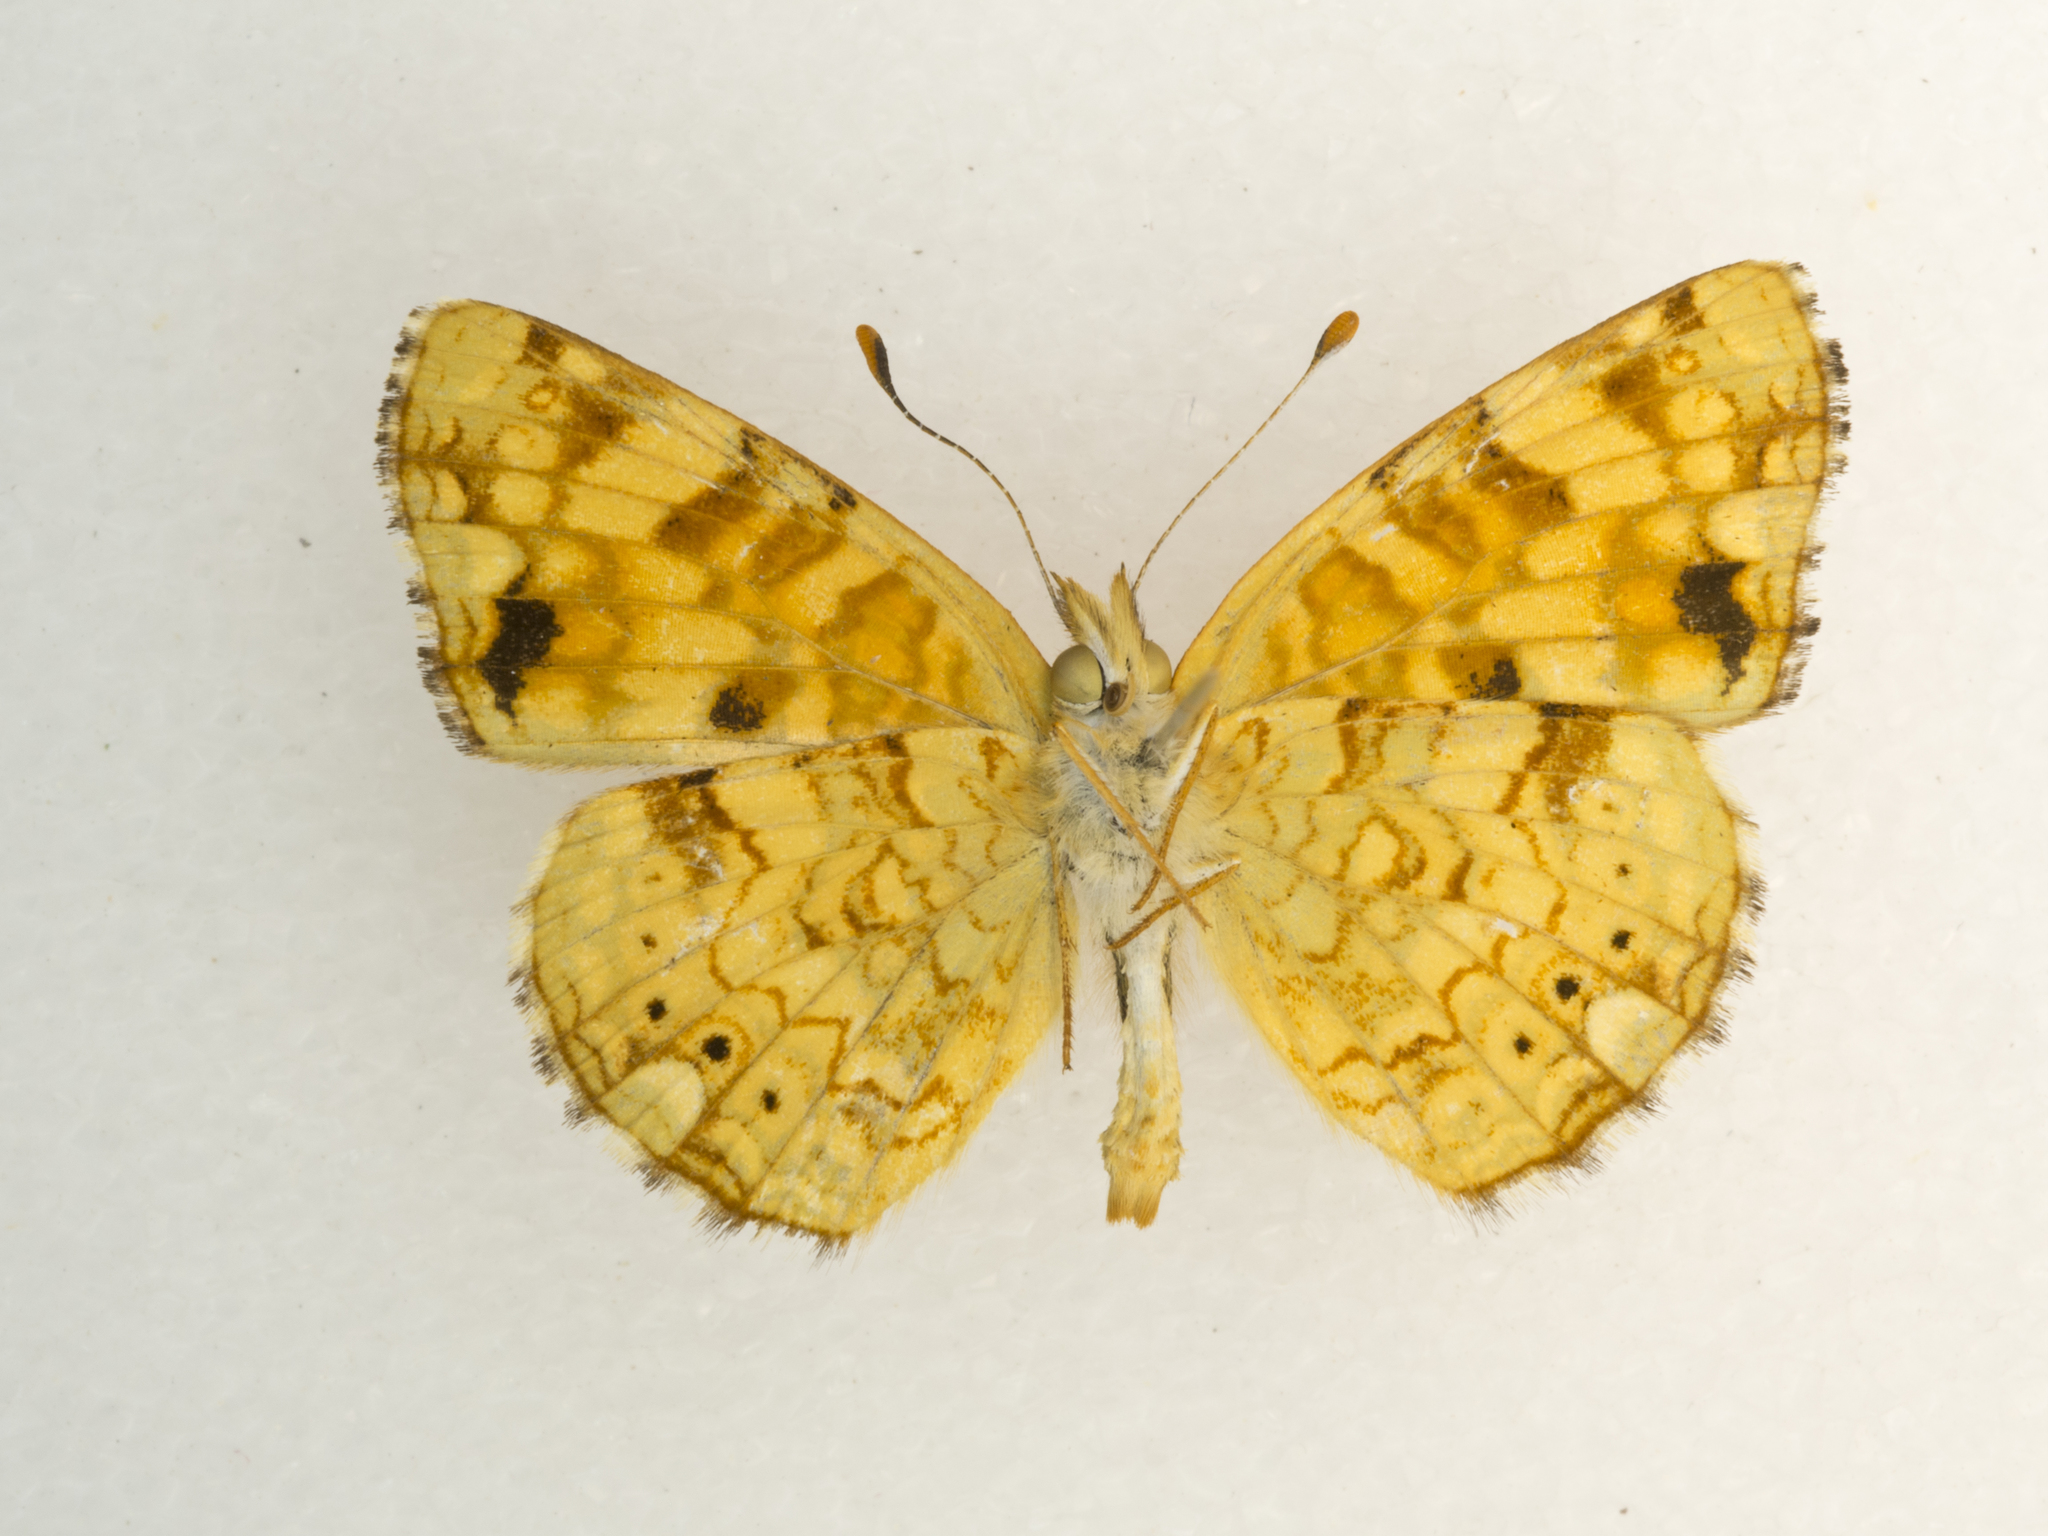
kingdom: Animalia
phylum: Arthropoda
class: Insecta
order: Lepidoptera
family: Nymphalidae
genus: Phyciodes
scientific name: Phyciodes pallida
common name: Pale crescent
